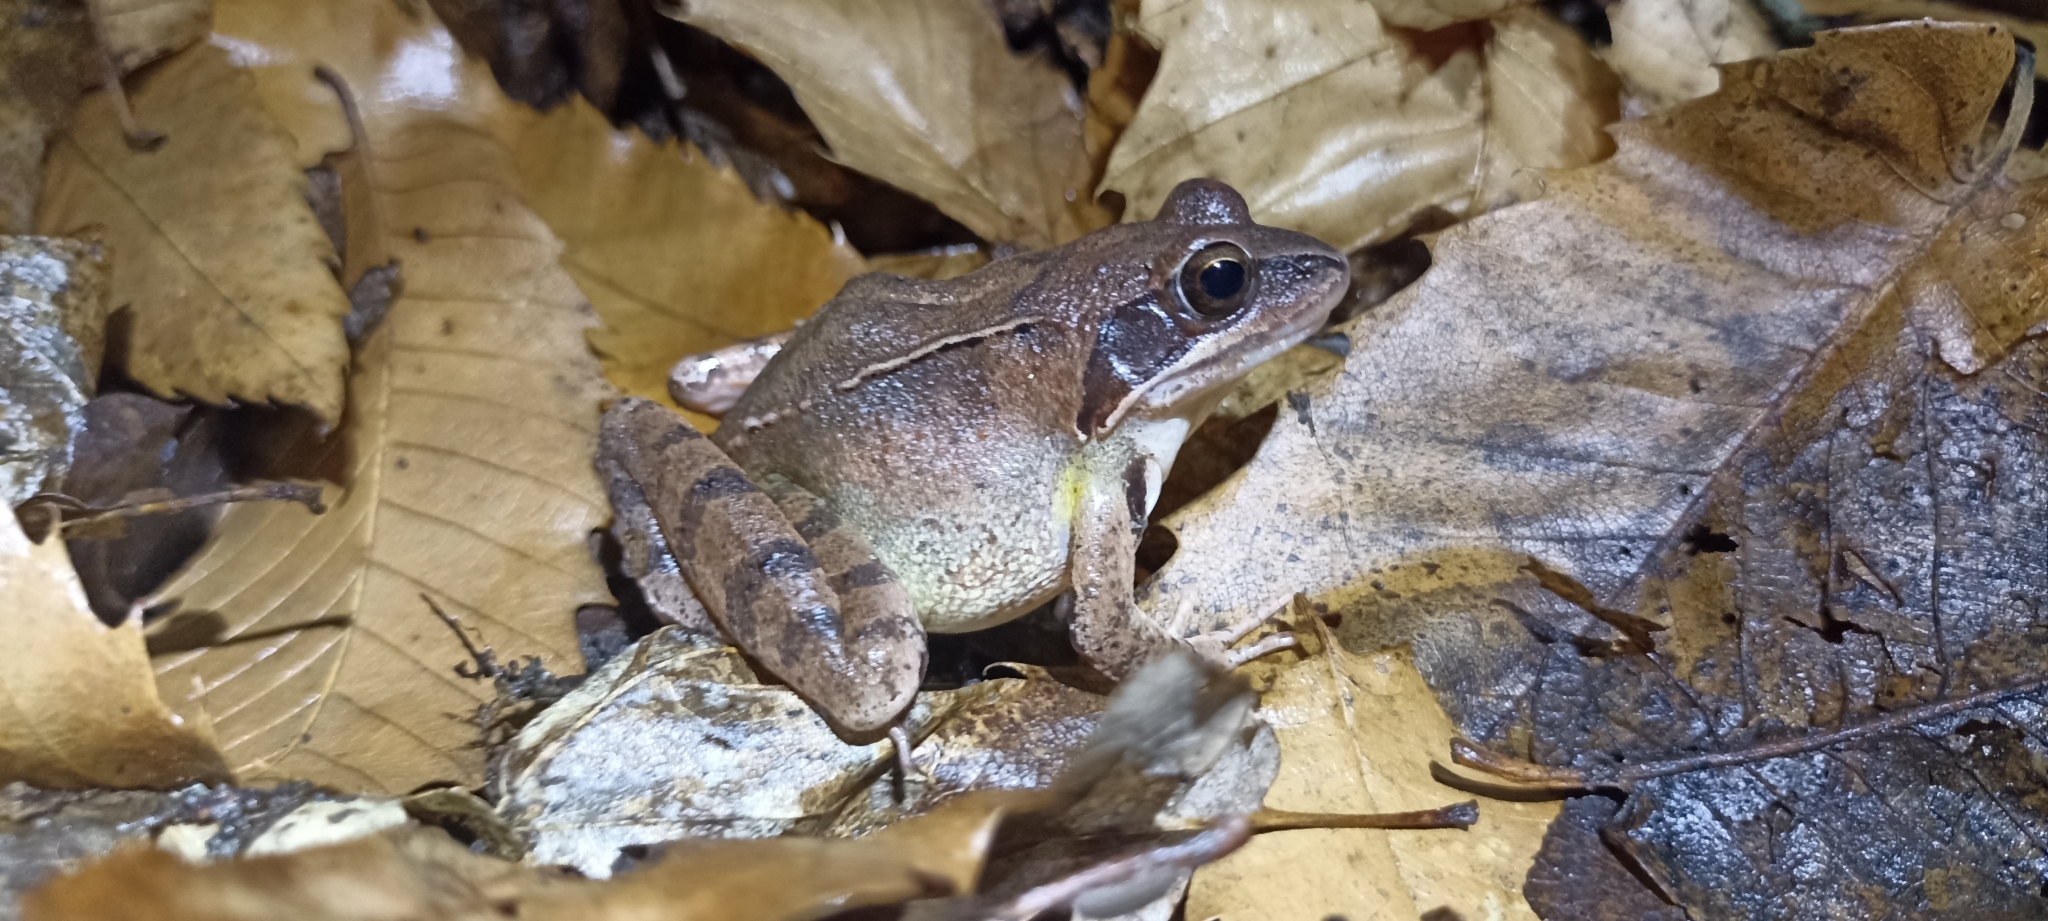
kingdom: Animalia
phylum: Chordata
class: Amphibia
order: Anura
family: Ranidae
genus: Rana
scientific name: Rana dalmatina
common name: Agile frog
